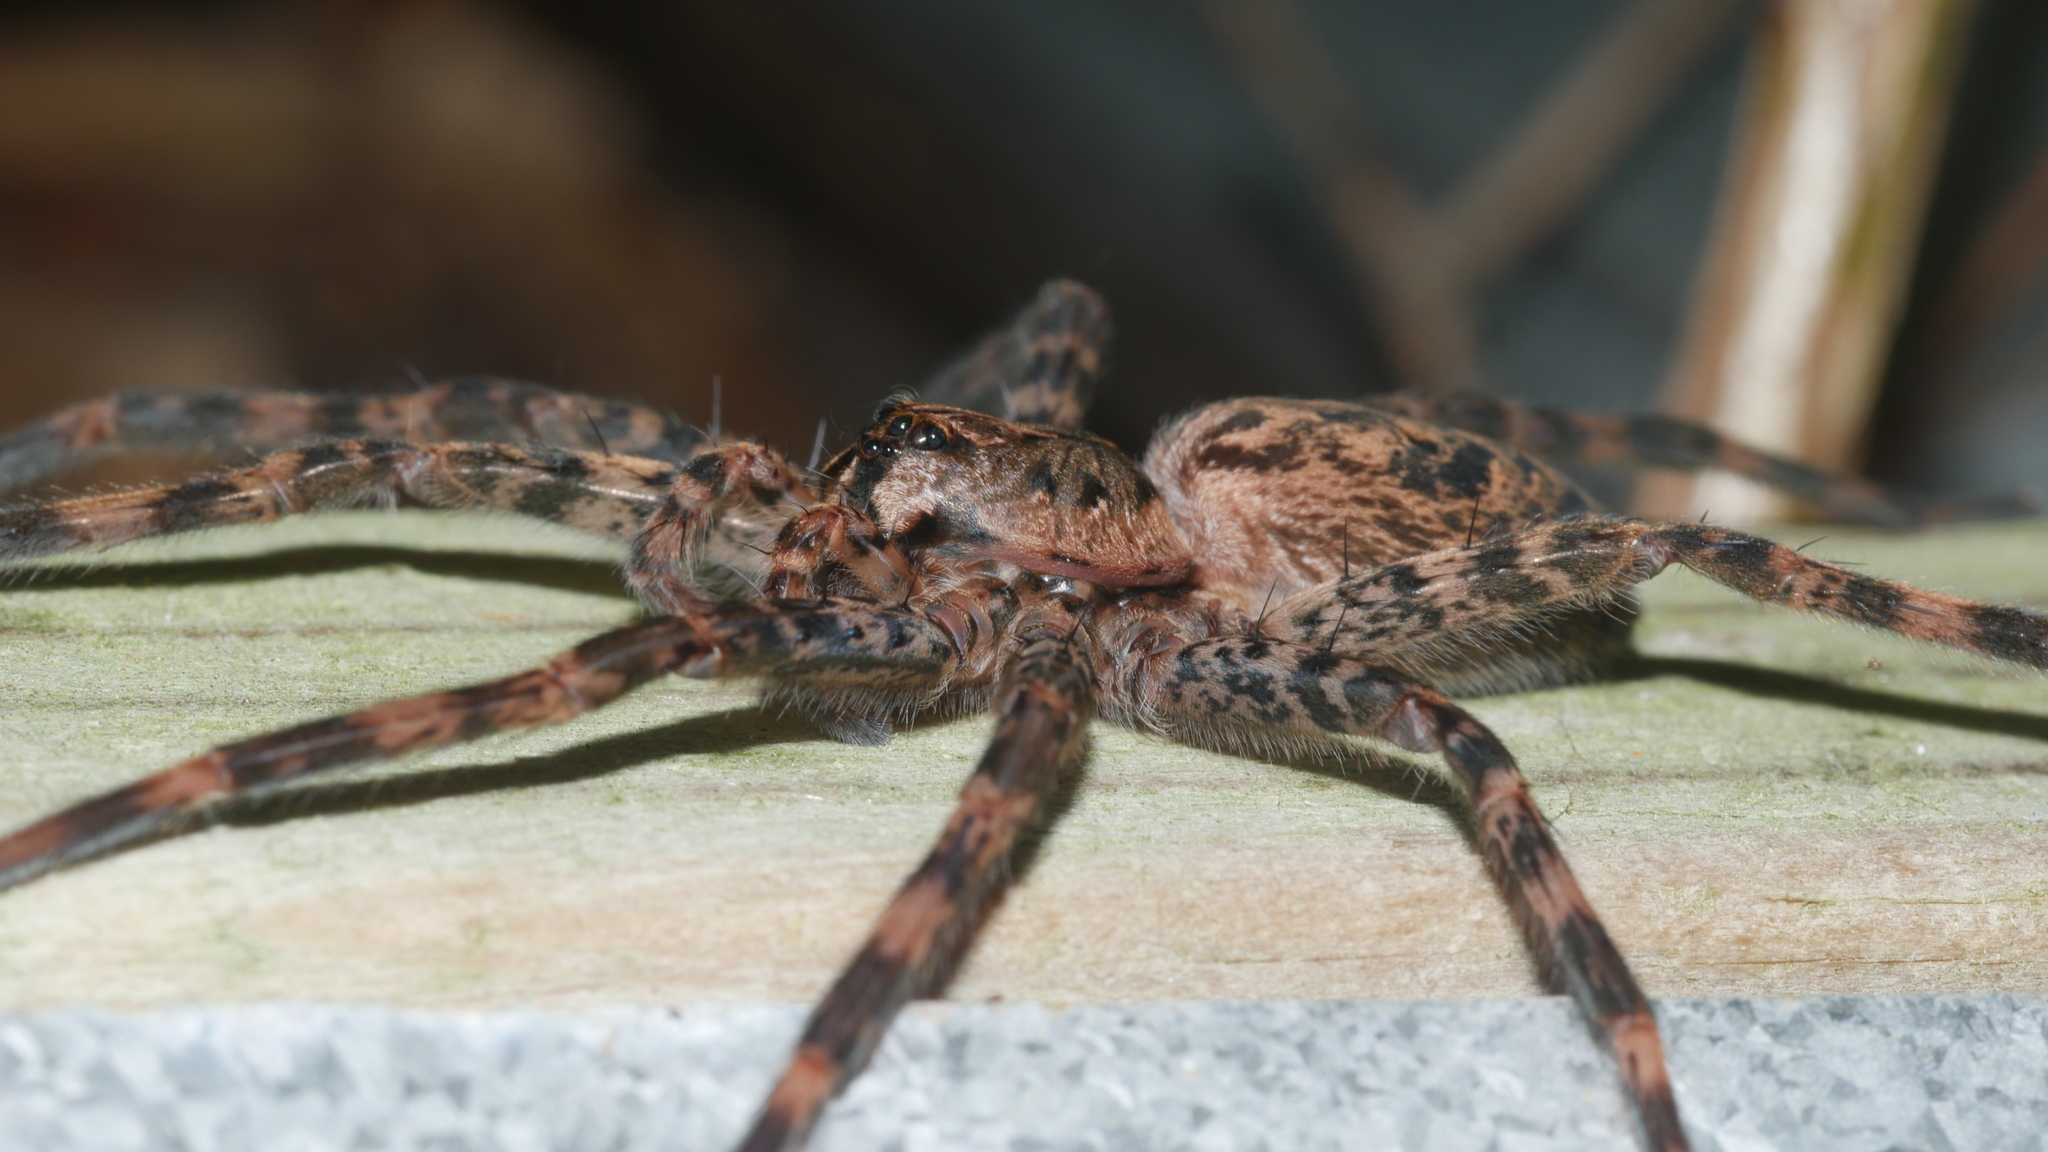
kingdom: Animalia
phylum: Arthropoda
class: Arachnida
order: Araneae
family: Pisauridae
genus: Dolomedes
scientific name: Dolomedes tenebrosus
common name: Dark fishing spider
